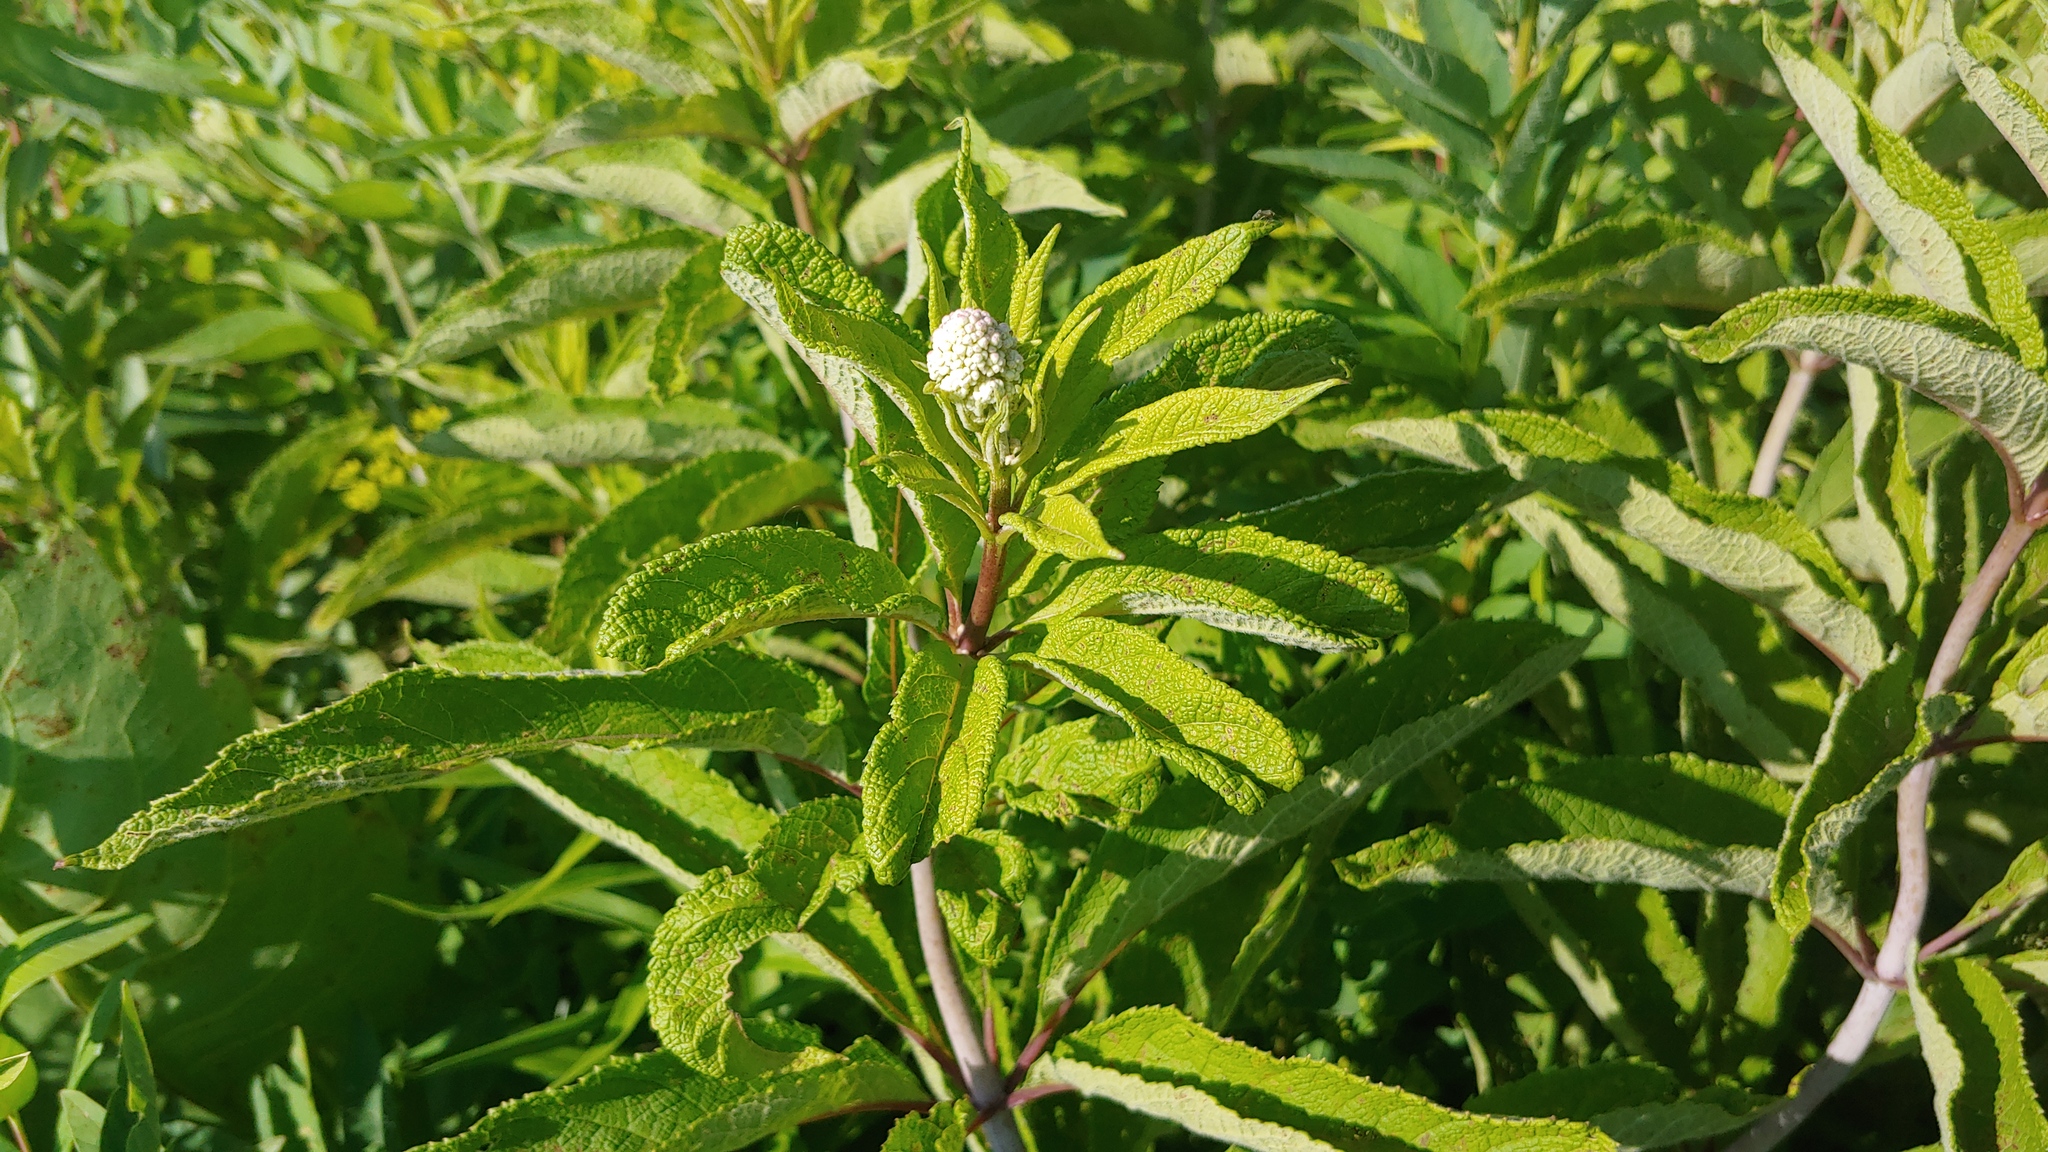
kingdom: Plantae
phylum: Tracheophyta
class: Magnoliopsida
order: Asterales
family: Asteraceae
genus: Eutrochium
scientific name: Eutrochium fistulosum
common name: Trumpetweed
